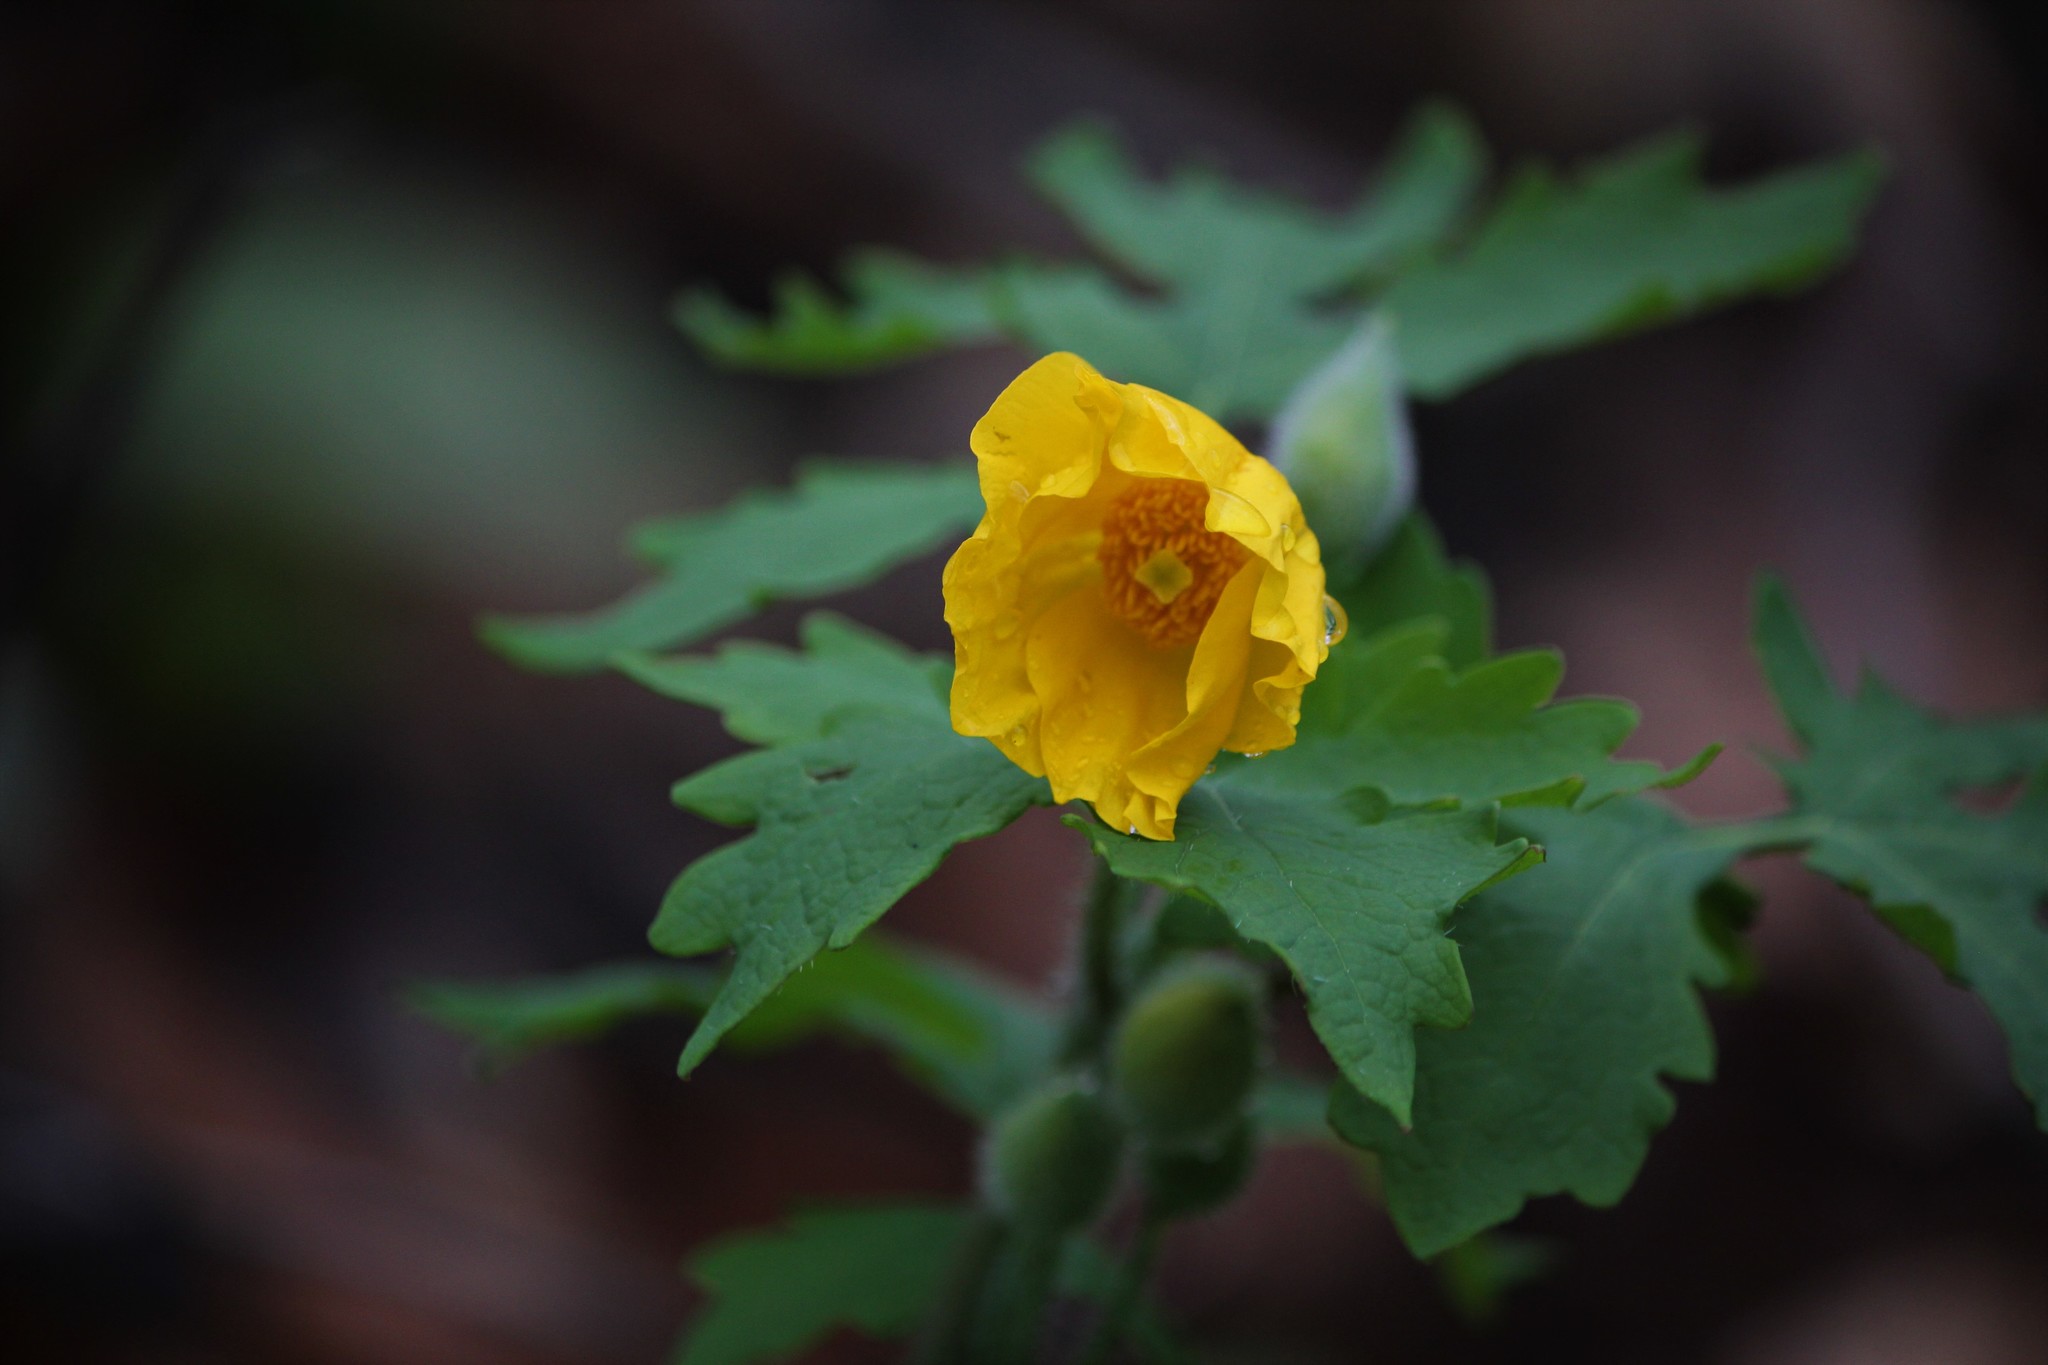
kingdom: Plantae
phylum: Tracheophyta
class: Magnoliopsida
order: Ranunculales
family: Papaveraceae
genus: Stylophorum
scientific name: Stylophorum diphyllum
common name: Celandine poppy
